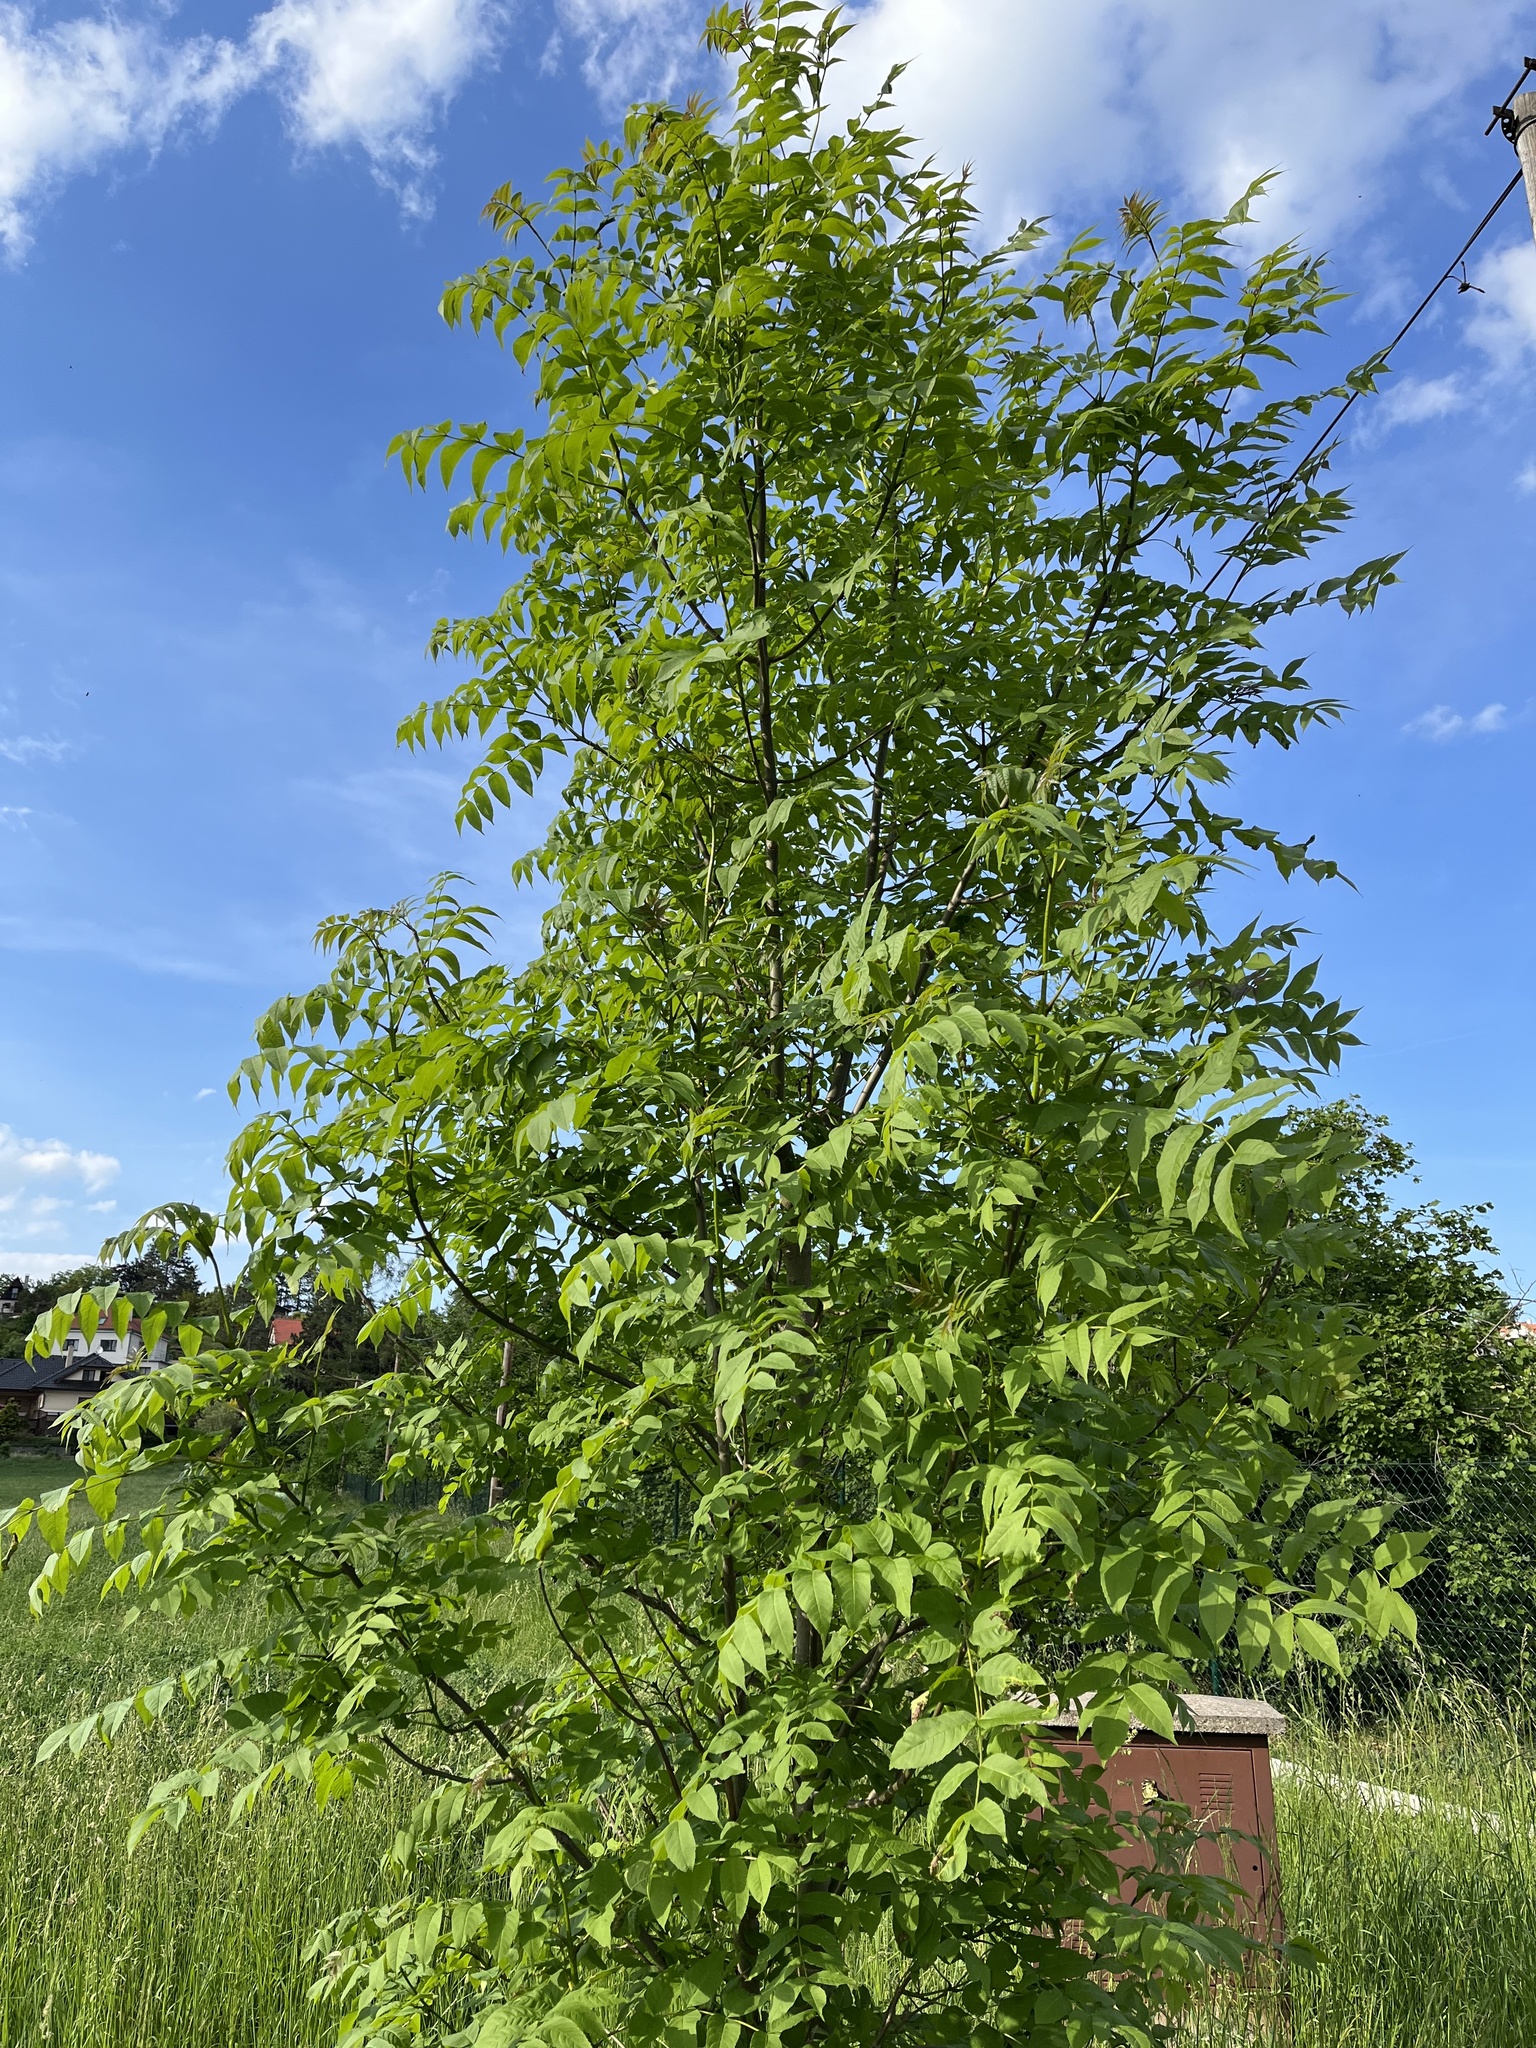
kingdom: Plantae
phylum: Tracheophyta
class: Magnoliopsida
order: Lamiales
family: Oleaceae
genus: Fraxinus
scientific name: Fraxinus excelsior
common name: European ash
